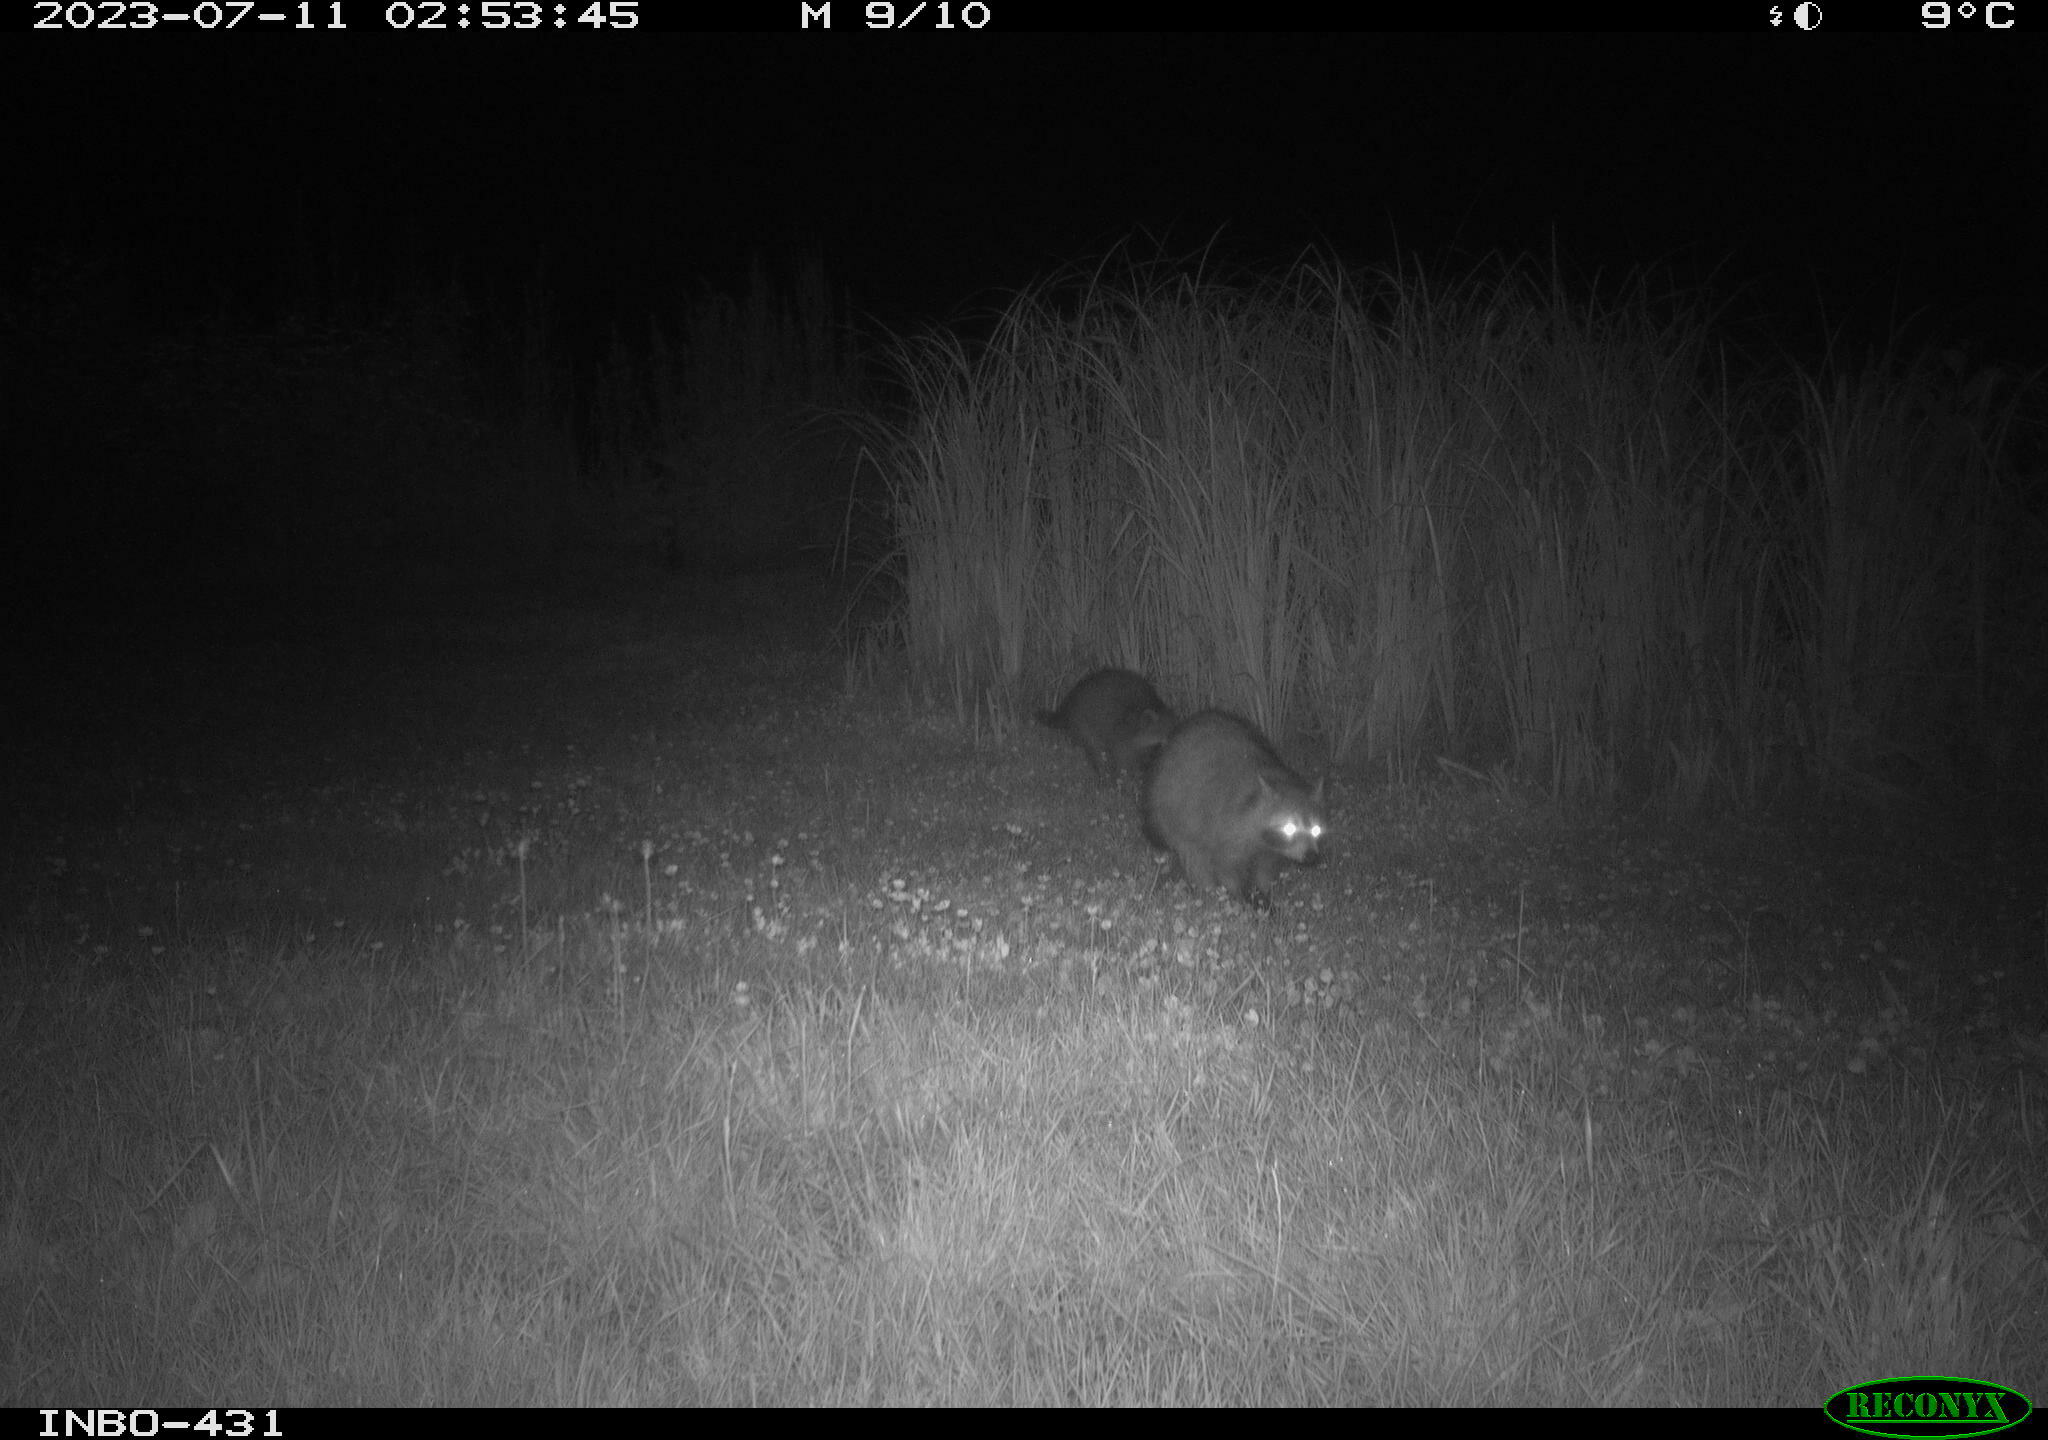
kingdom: Animalia
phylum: Chordata
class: Mammalia
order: Carnivora
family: Procyonidae
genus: Procyon
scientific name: Procyon lotor
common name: Raccoon
